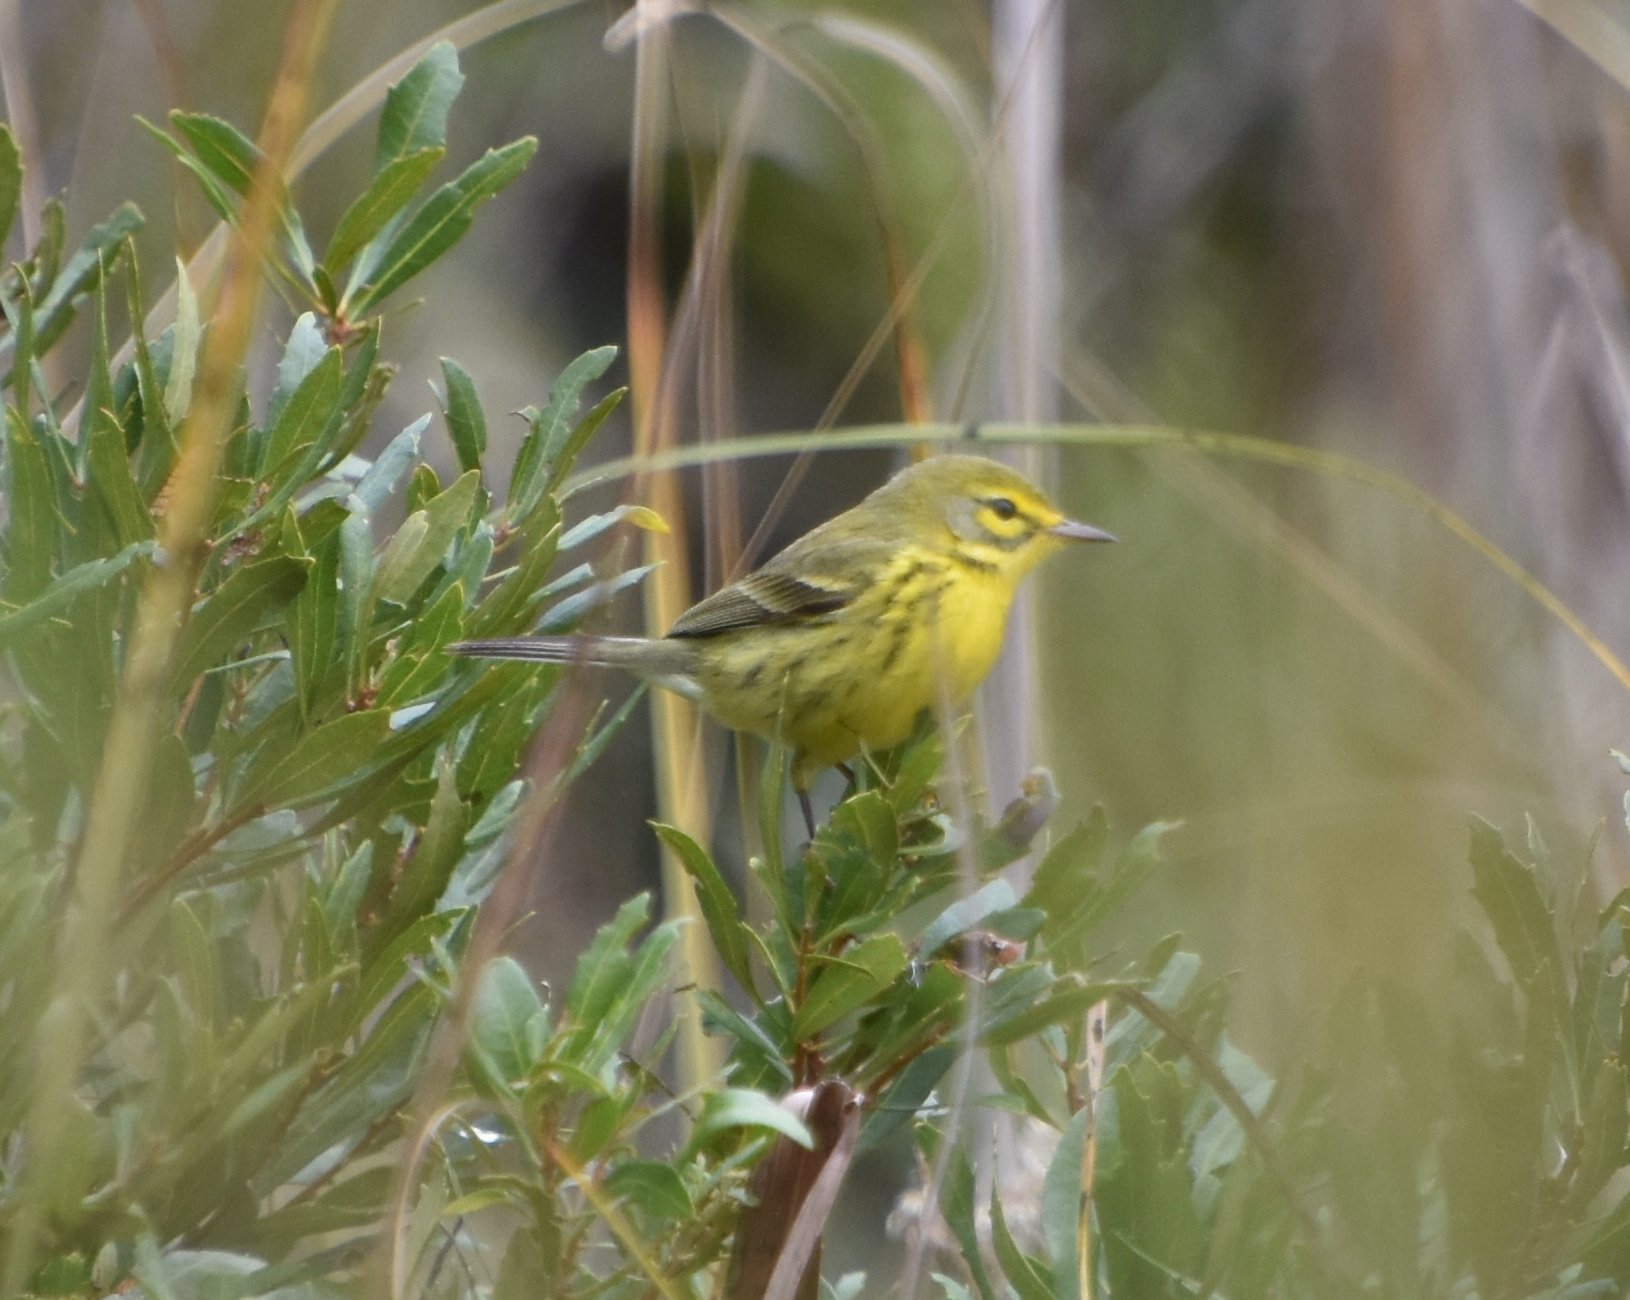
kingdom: Animalia
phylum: Chordata
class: Aves
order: Passeriformes
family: Parulidae
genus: Setophaga
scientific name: Setophaga discolor
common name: Prairie warbler
